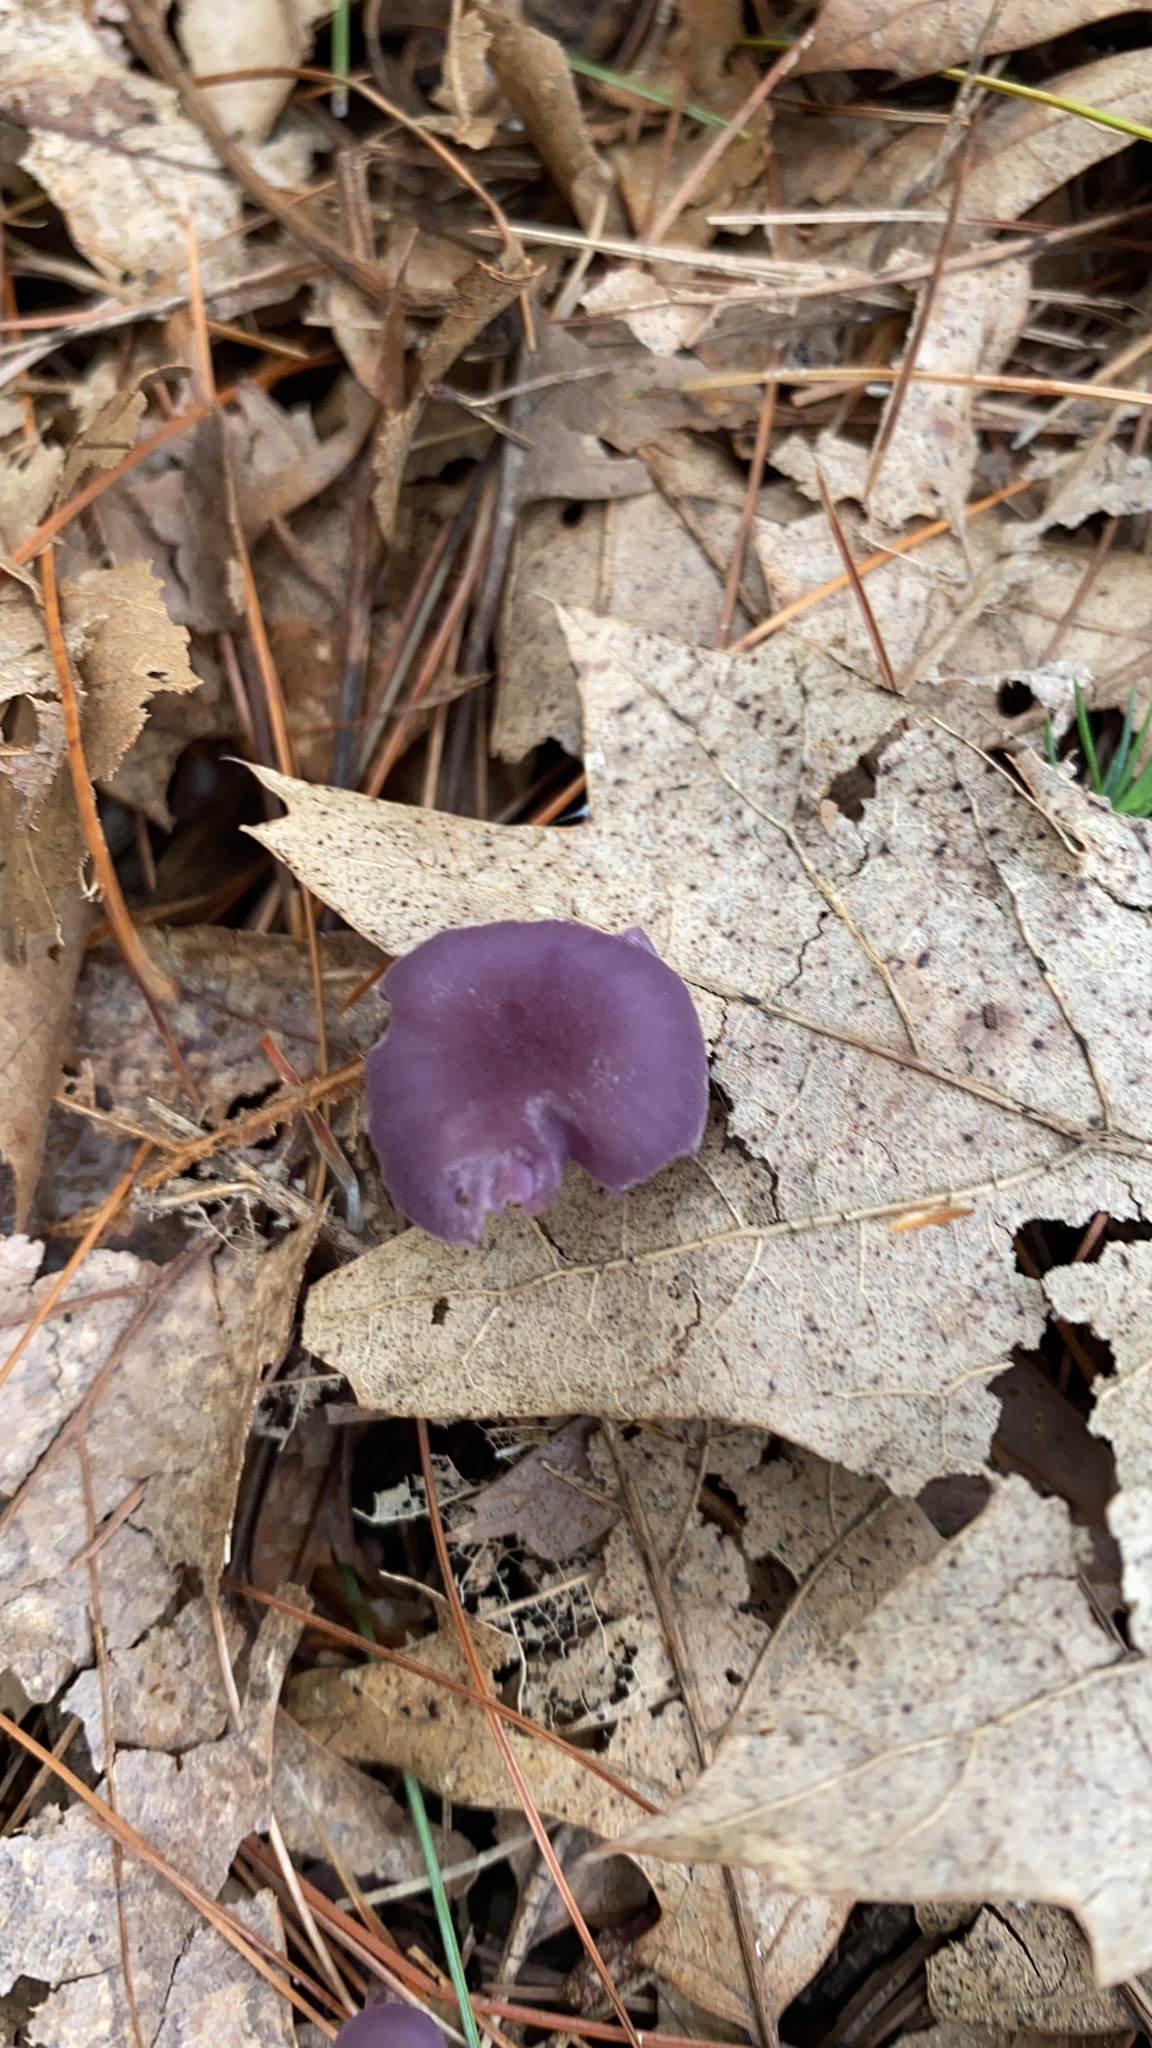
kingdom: Fungi
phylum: Basidiomycota
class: Agaricomycetes
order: Agaricales
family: Hydnangiaceae
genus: Laccaria
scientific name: Laccaria amethystina
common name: Amethyst deceiver
